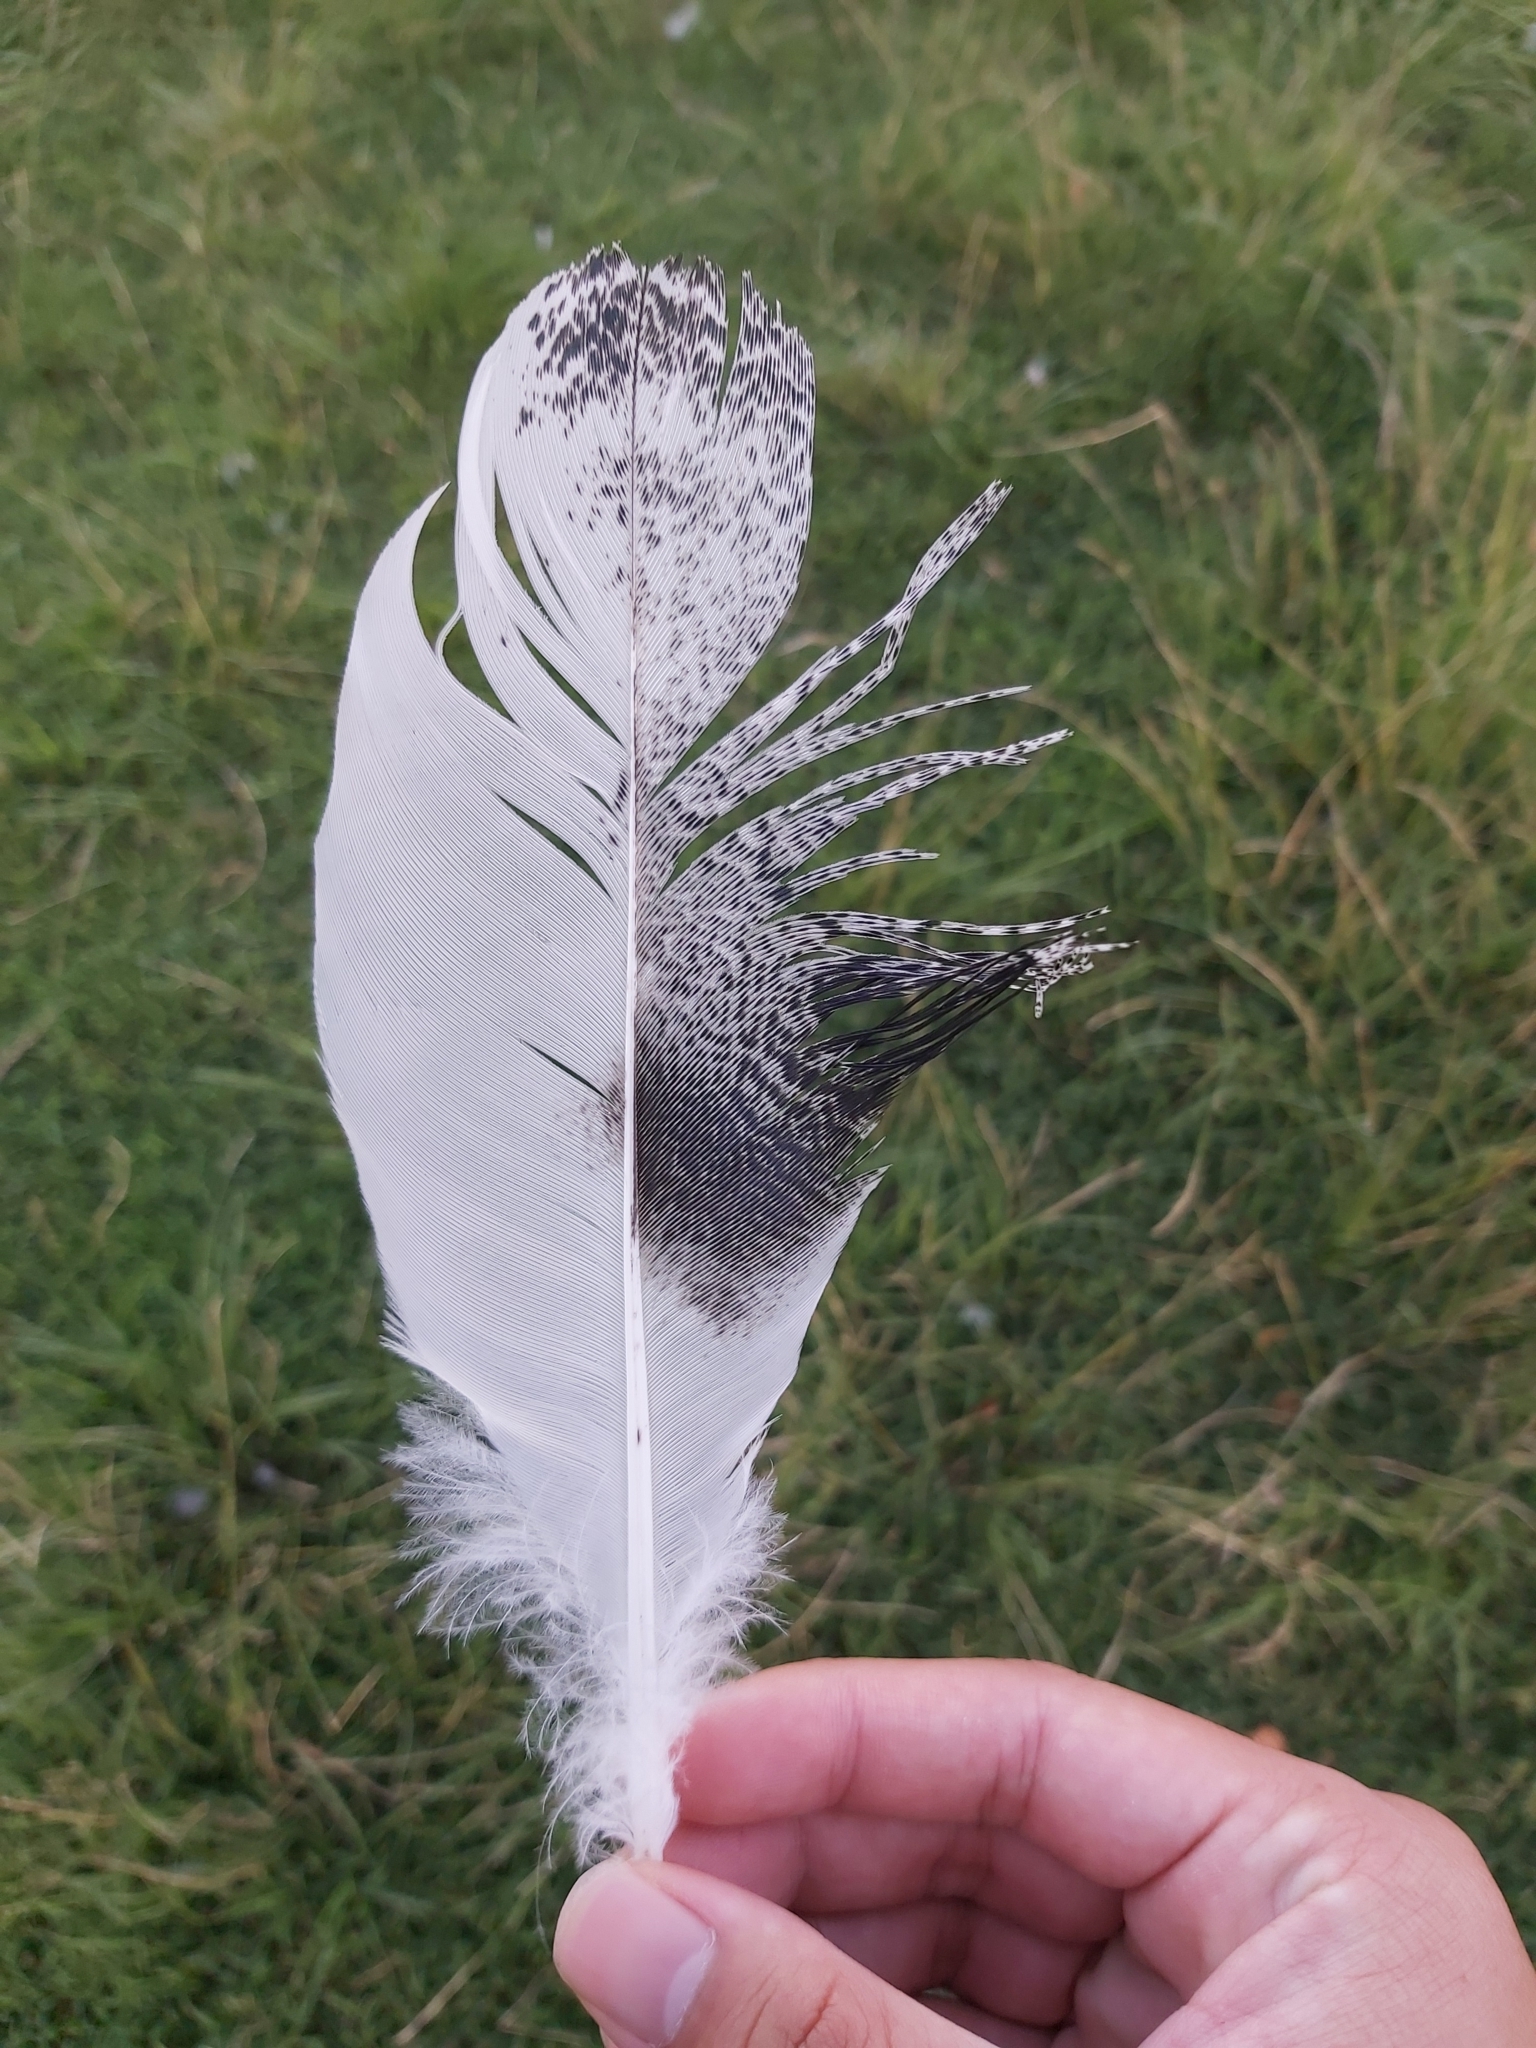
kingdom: Animalia
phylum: Chordata
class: Aves
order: Pelecaniformes
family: Threskiornithidae
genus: Threskiornis
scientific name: Threskiornis molucca
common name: Australian white ibis
